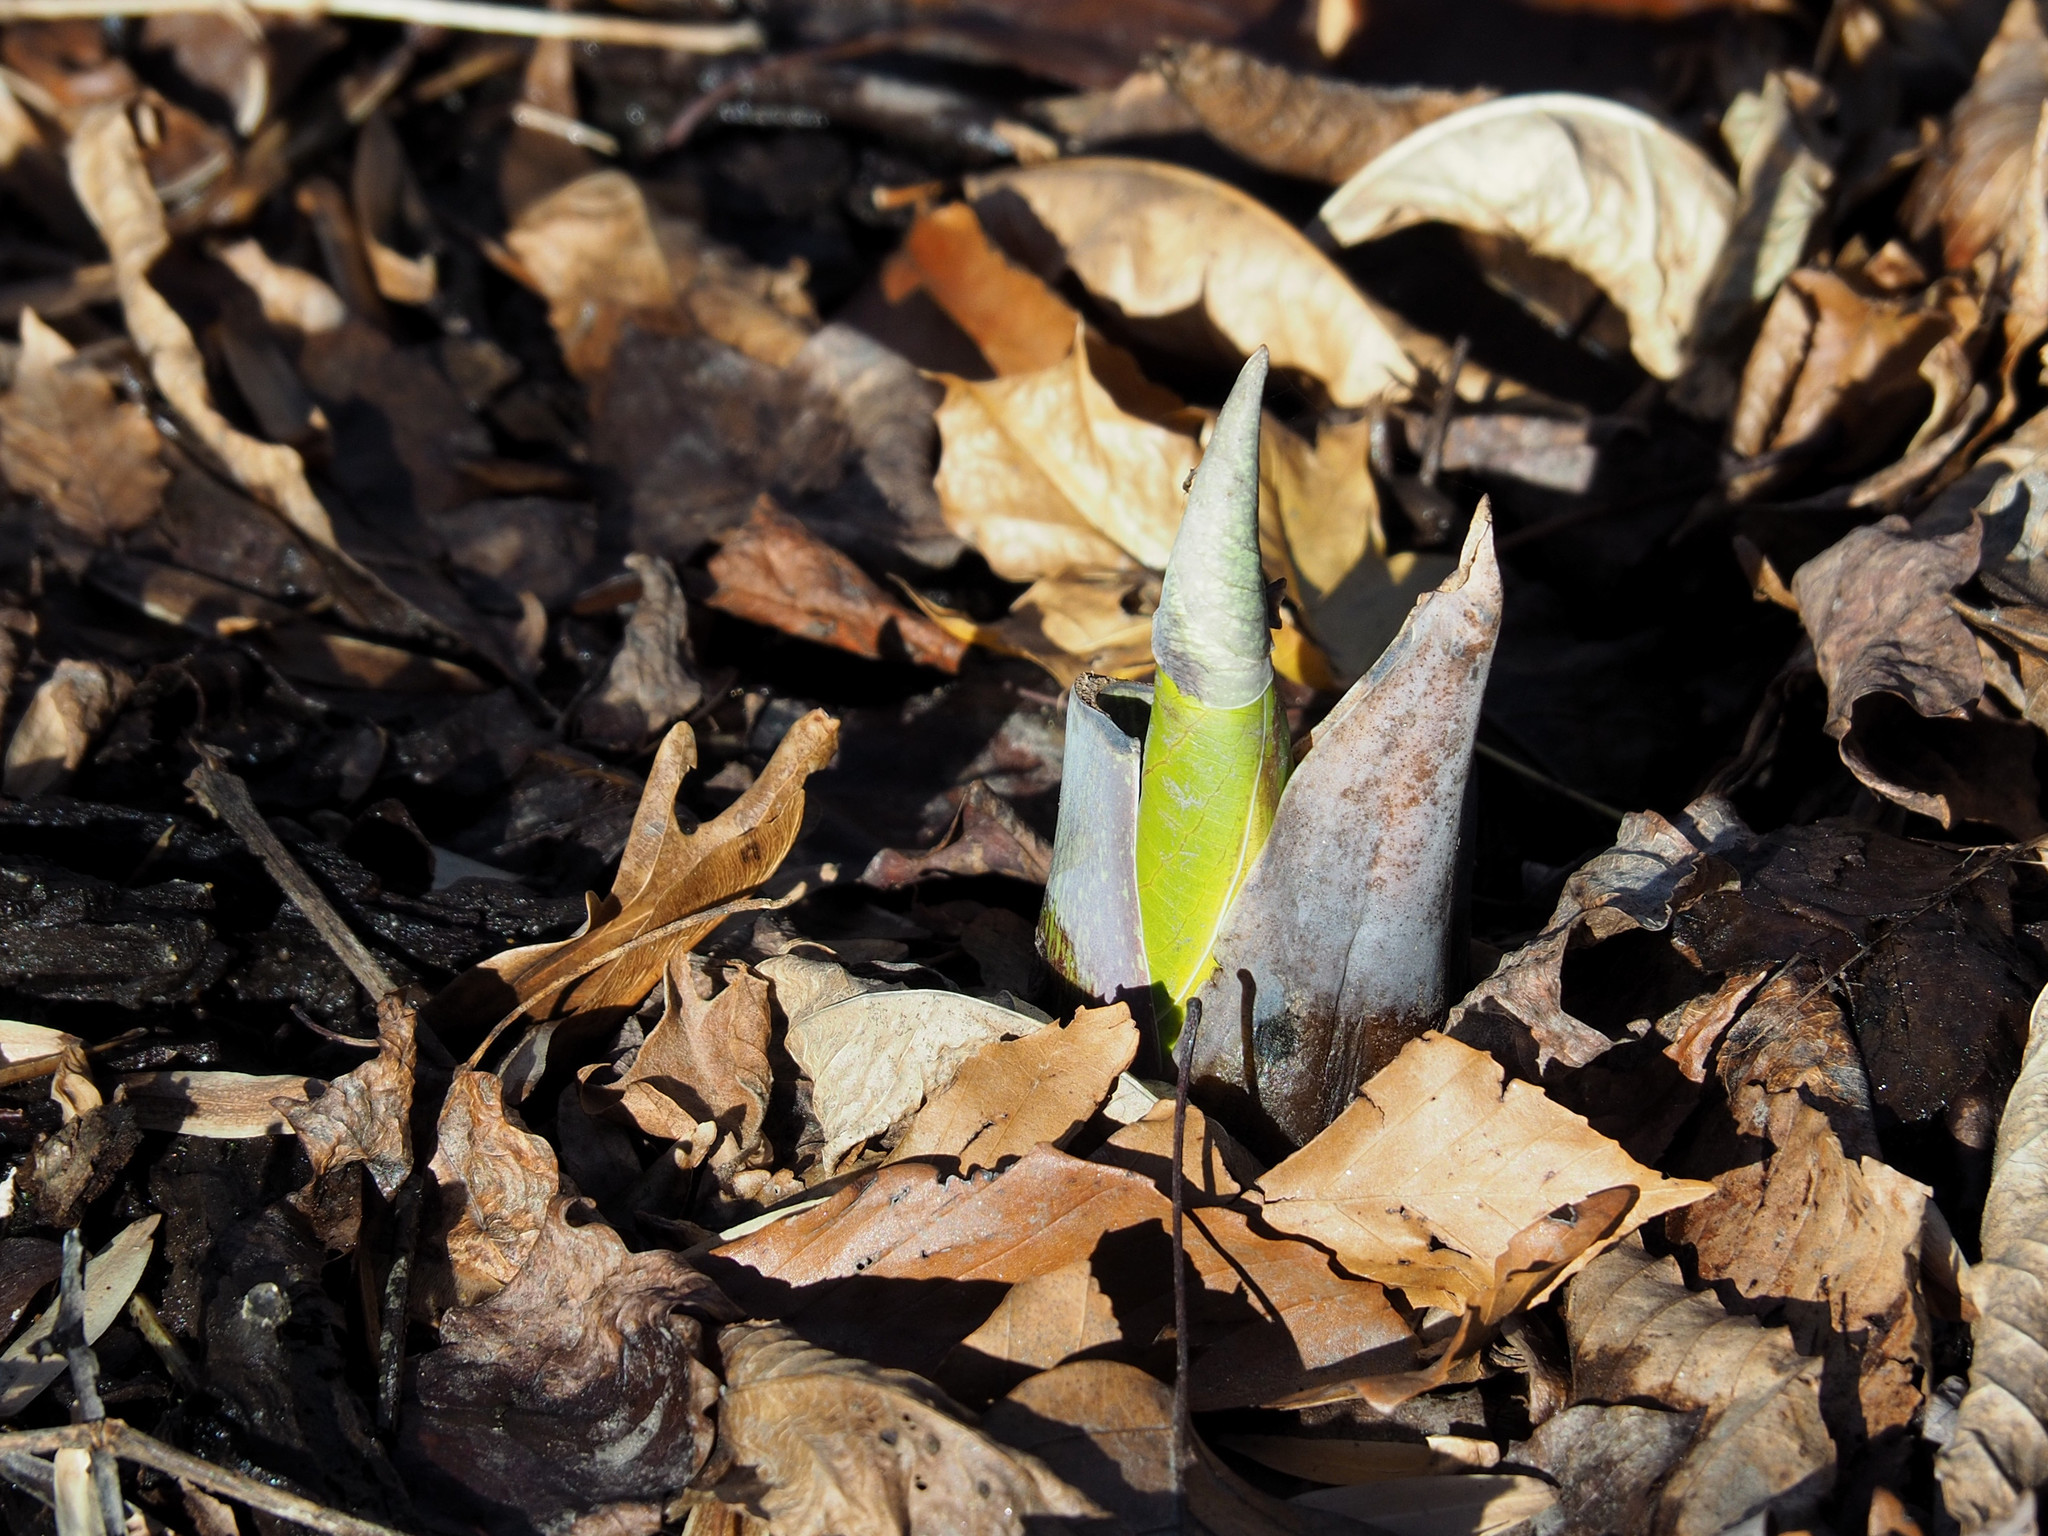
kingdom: Plantae
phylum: Tracheophyta
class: Liliopsida
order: Alismatales
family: Araceae
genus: Symplocarpus
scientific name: Symplocarpus foetidus
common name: Eastern skunk cabbage
